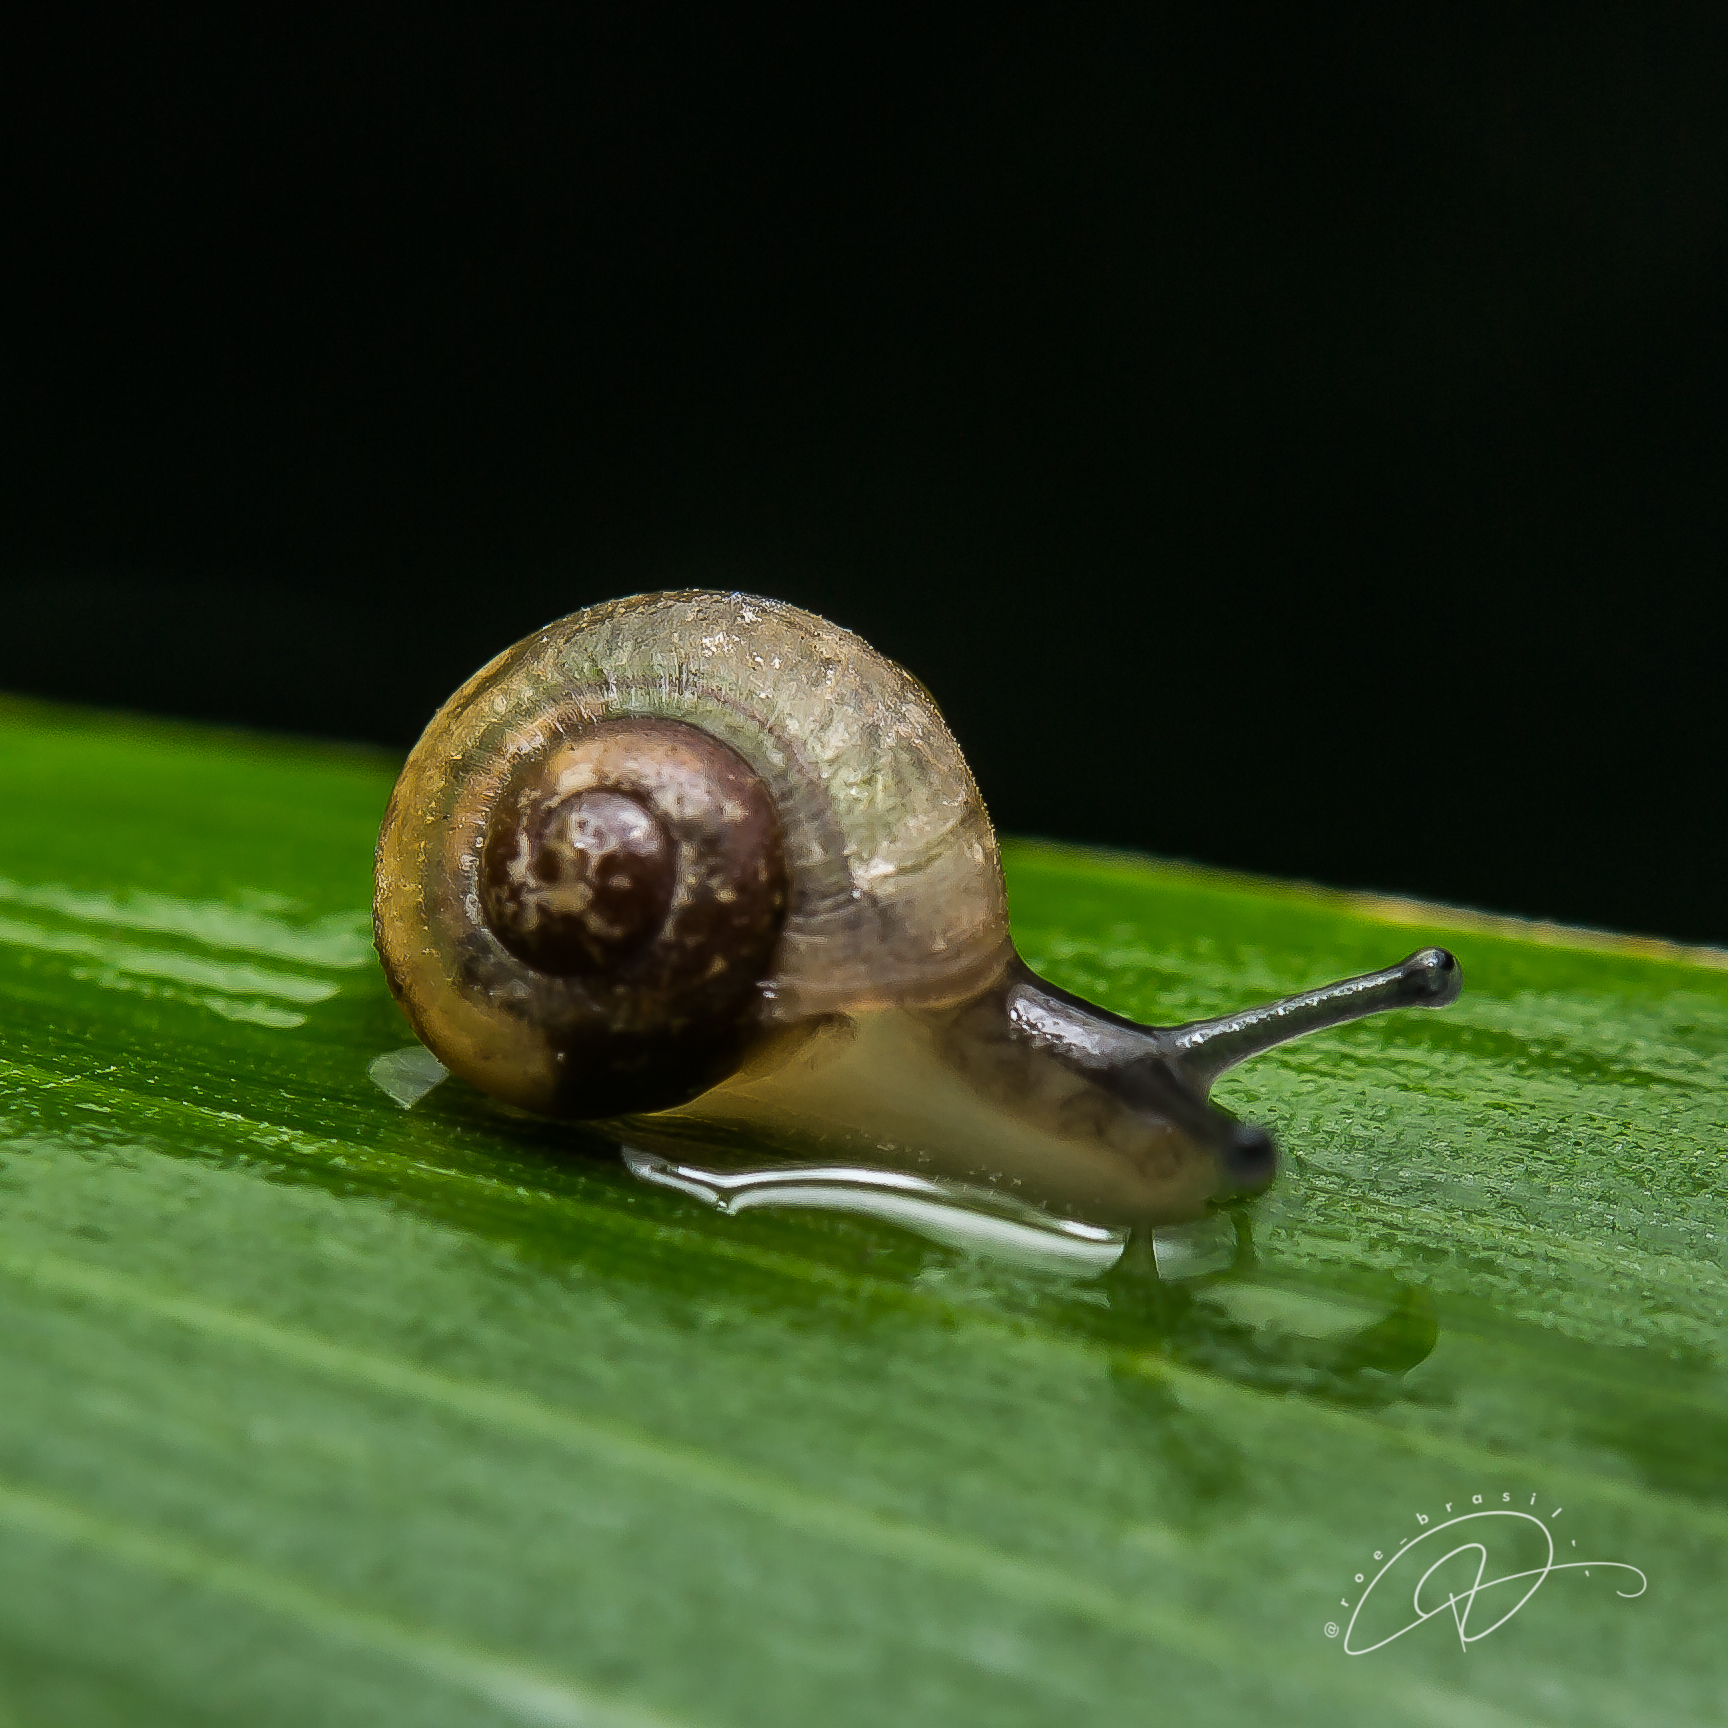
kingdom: Animalia
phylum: Mollusca
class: Gastropoda
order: Stylommatophora
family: Camaenidae
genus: Bradybaena
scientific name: Bradybaena similaris
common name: Asian trampsnail
